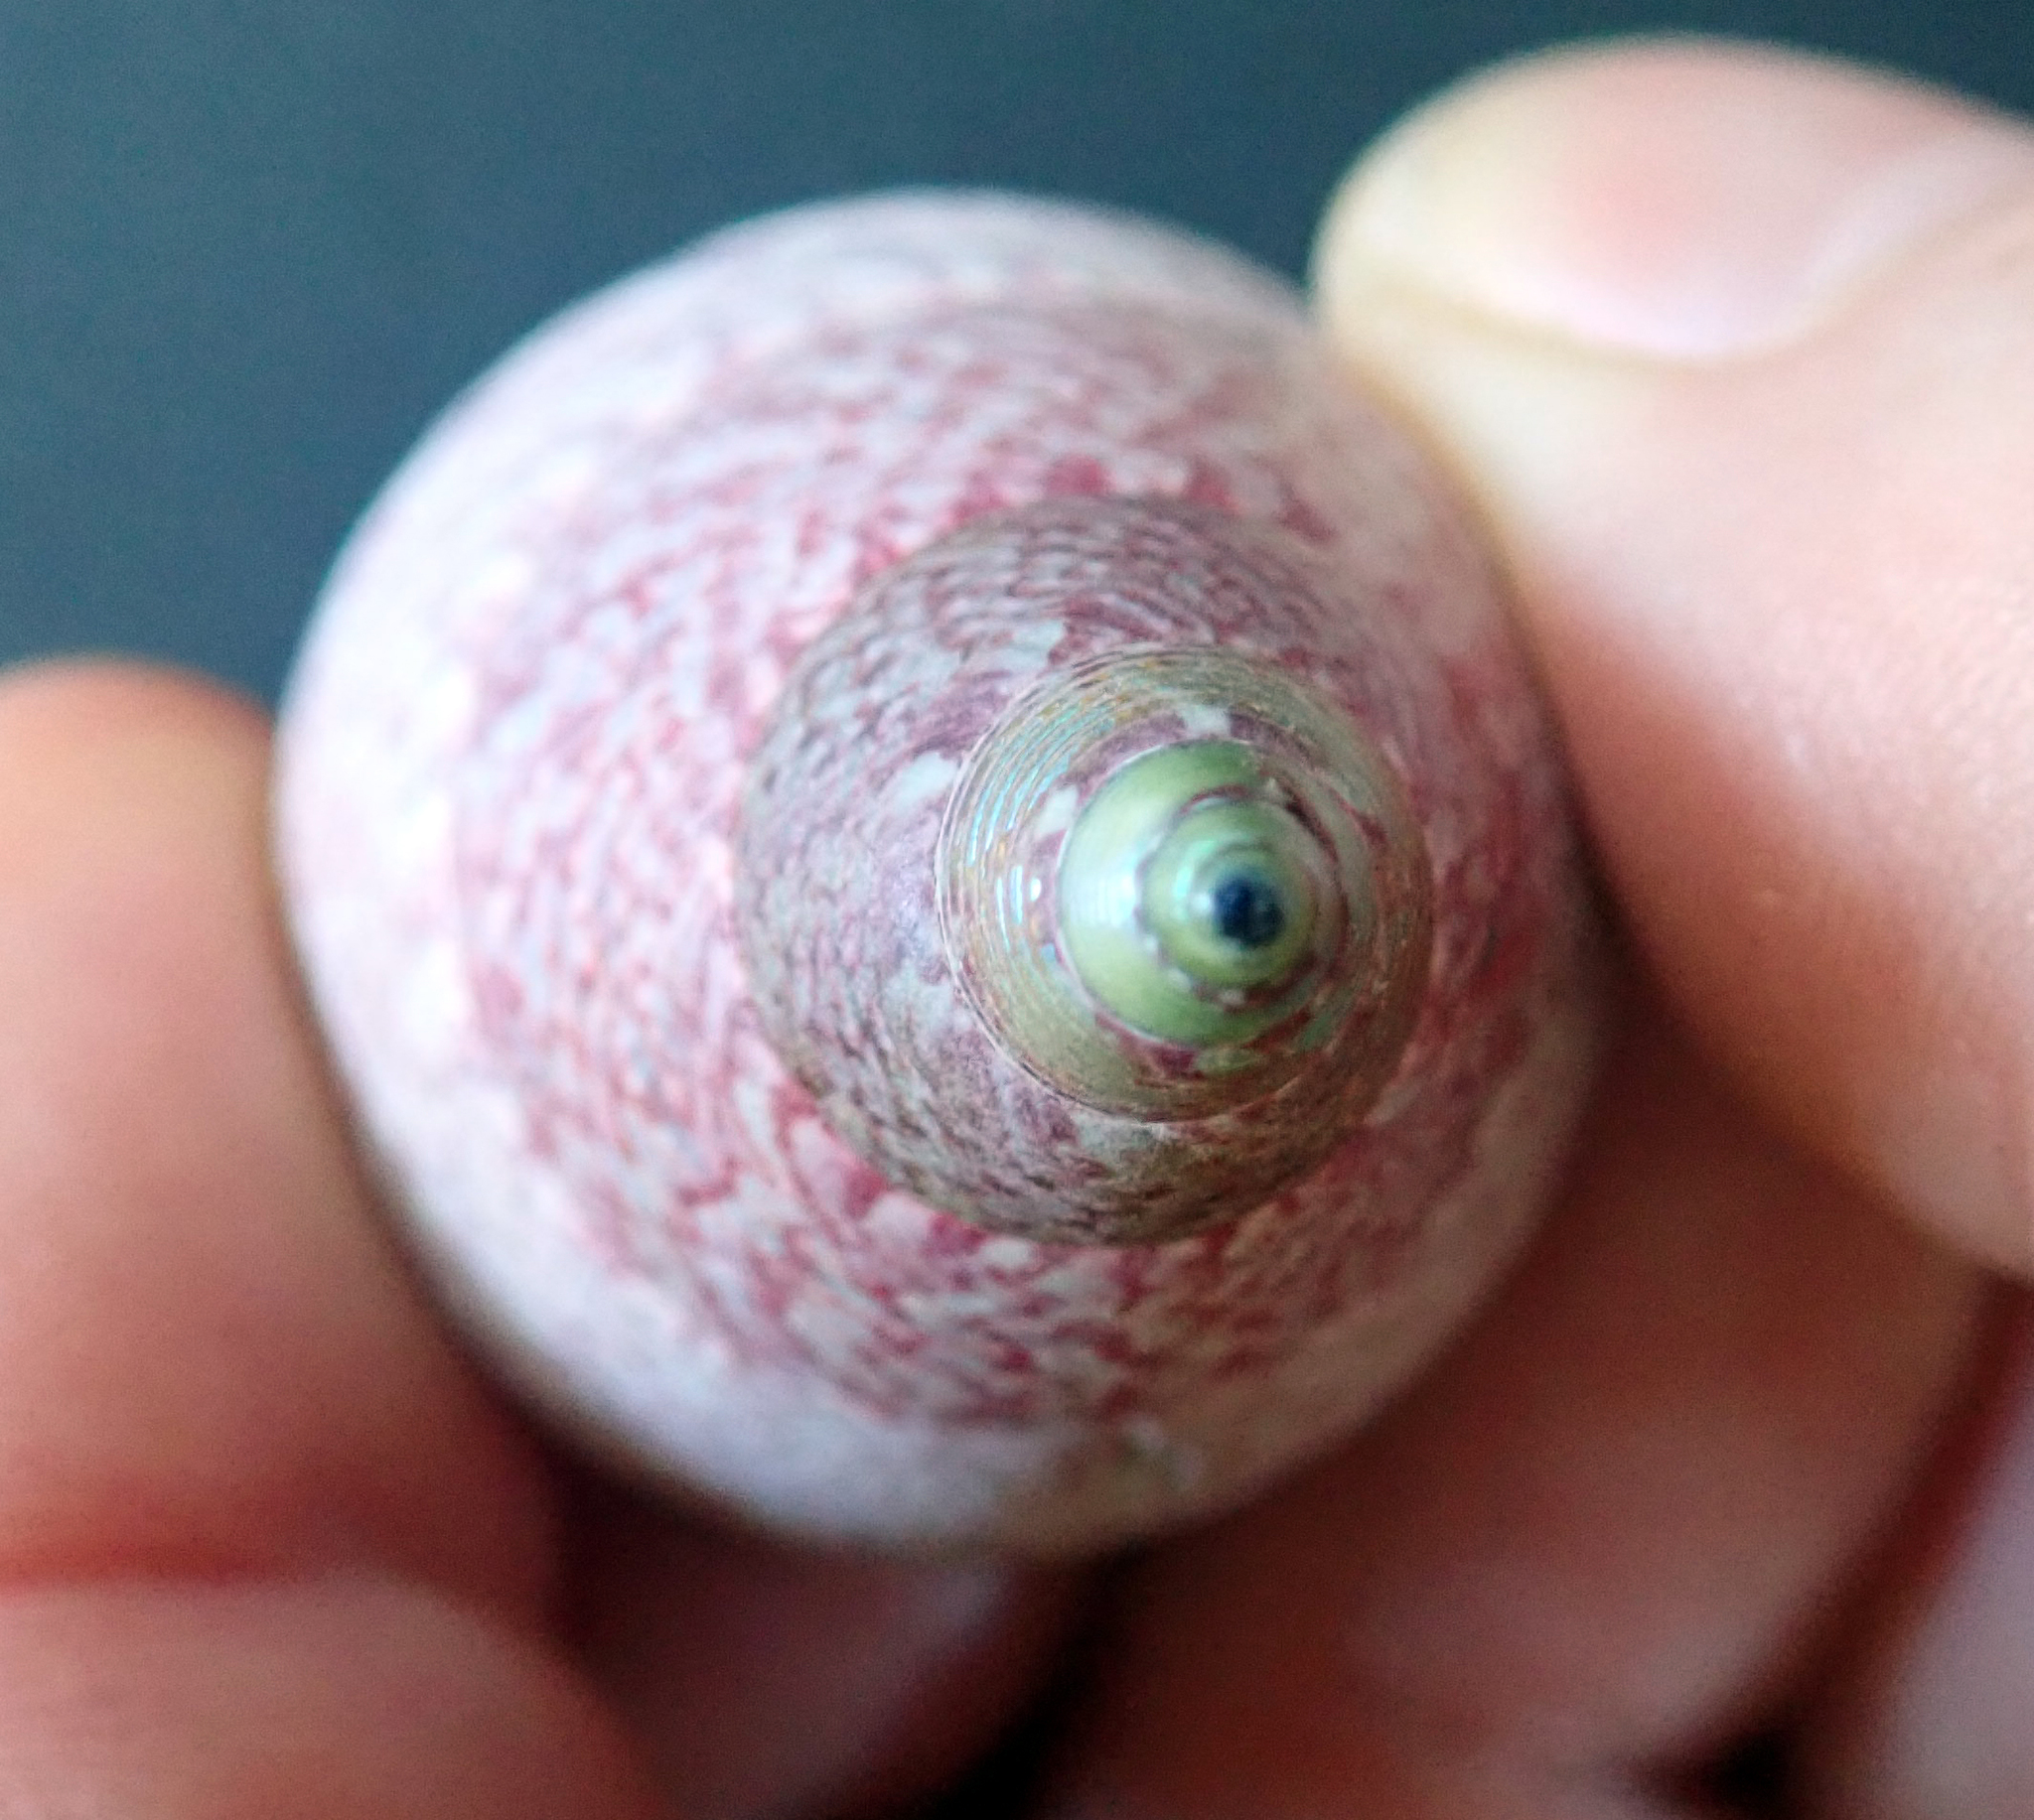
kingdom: Animalia
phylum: Mollusca
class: Gastropoda
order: Trochida
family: Trochidae
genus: Cantharidus
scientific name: Cantharidus opalus
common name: Opal jewel topsnail
